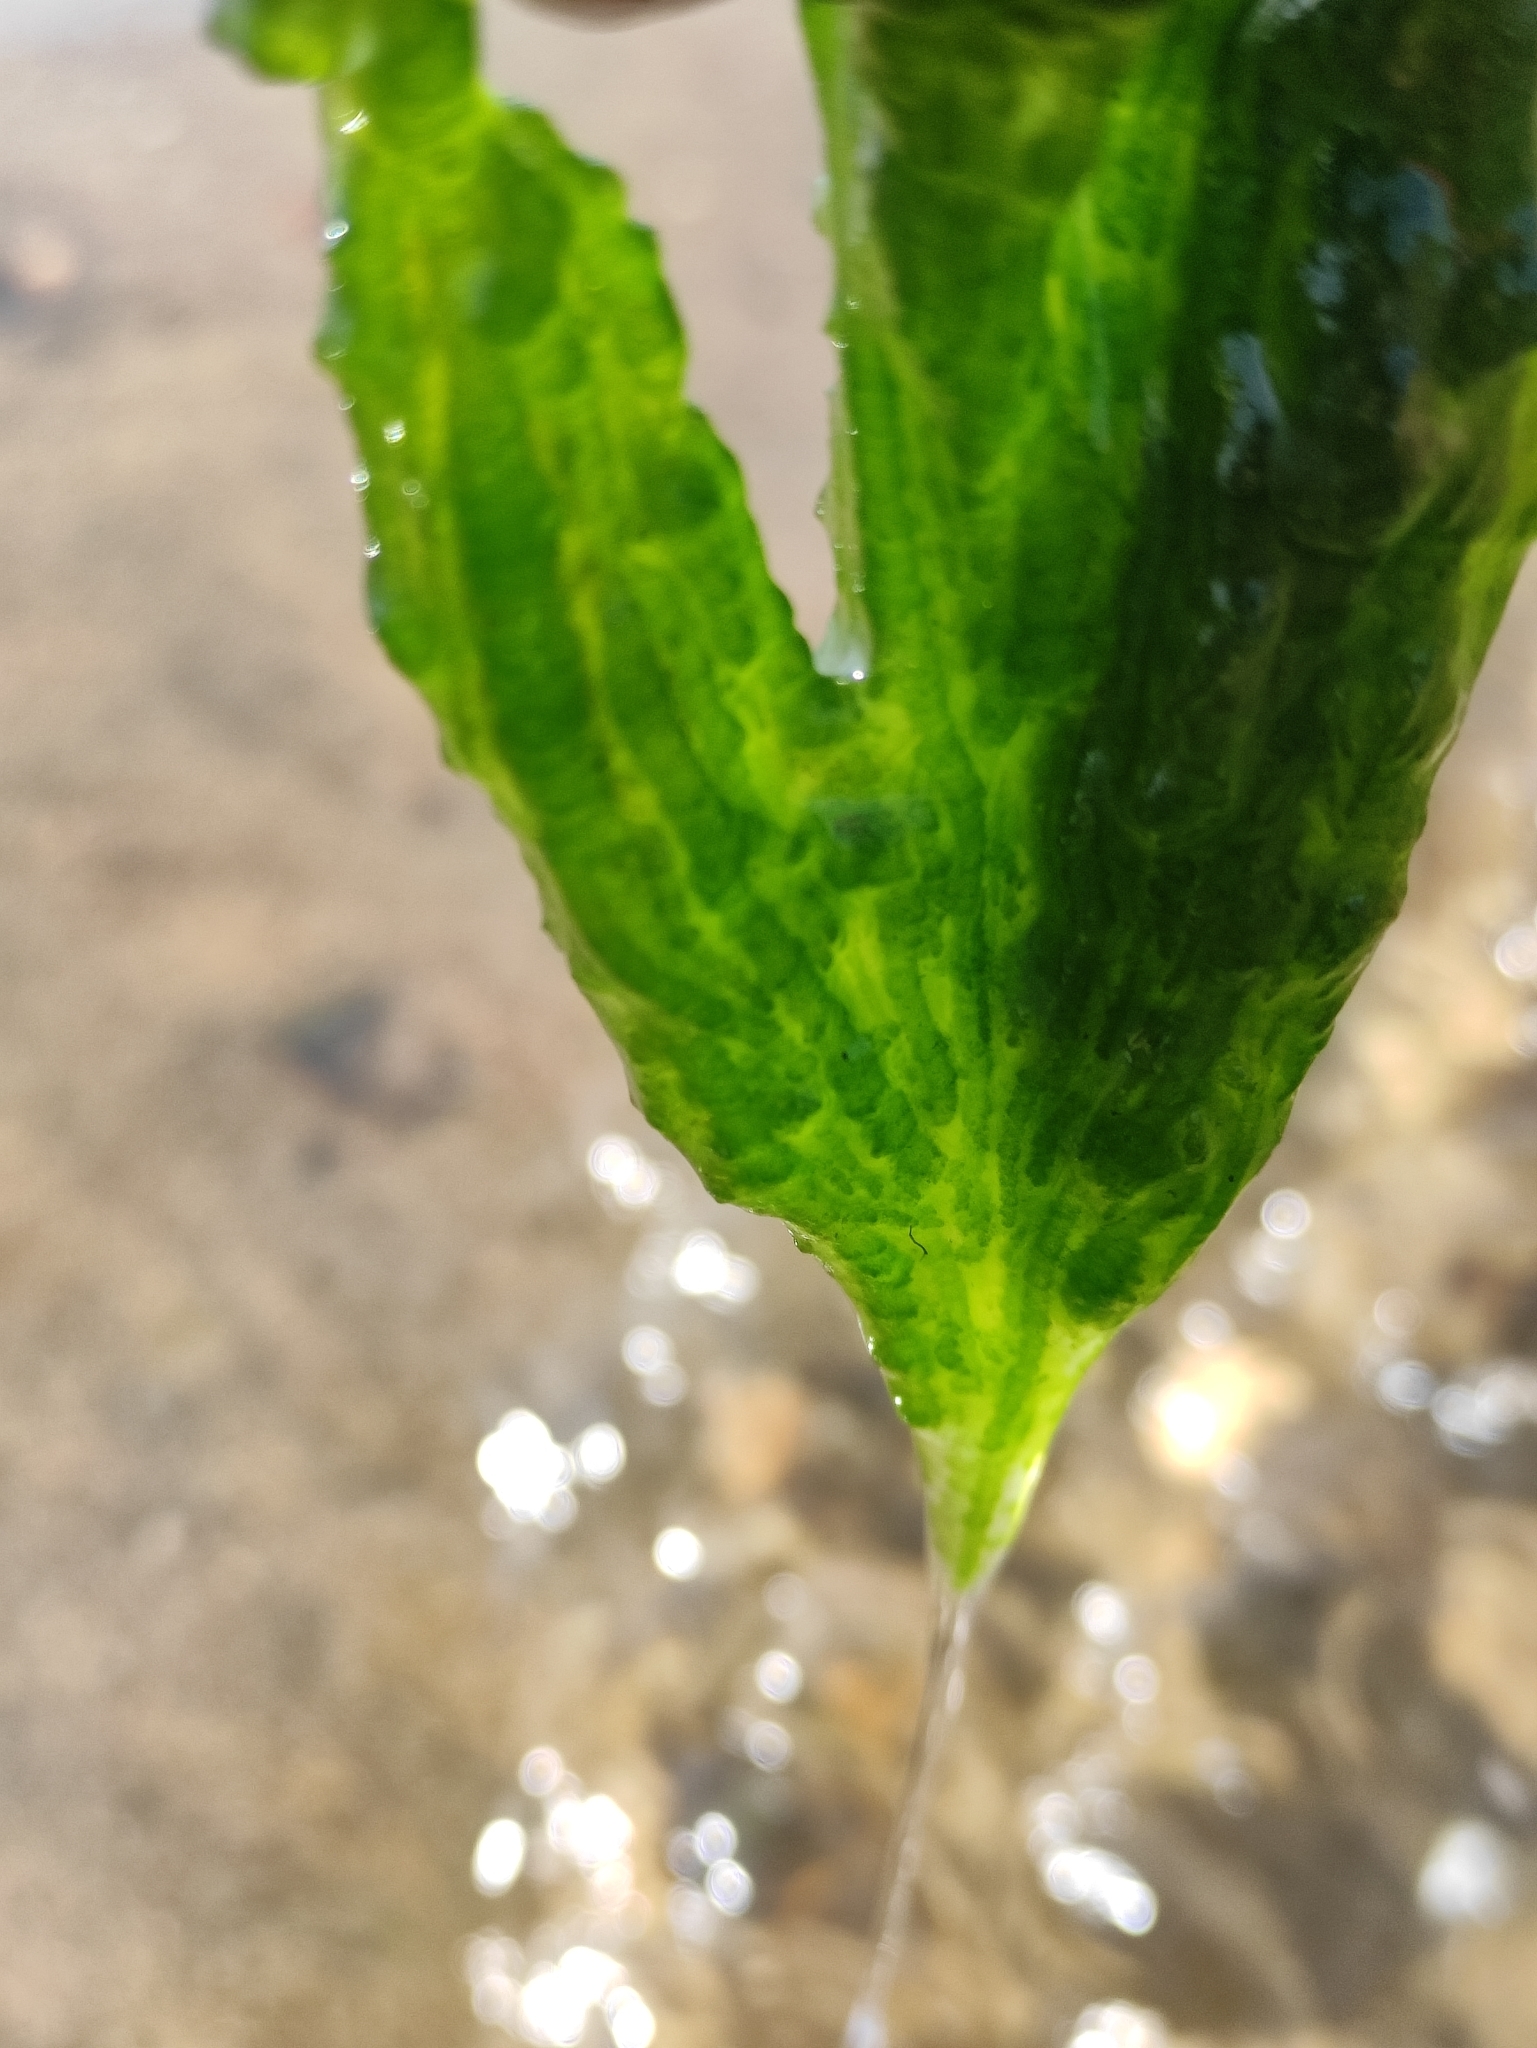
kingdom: Plantae
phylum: Chlorophyta
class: Chlorophyceae
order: Chaetophorales
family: Chaetophoraceae
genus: Draparnaldioides
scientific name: Draparnaldioides
